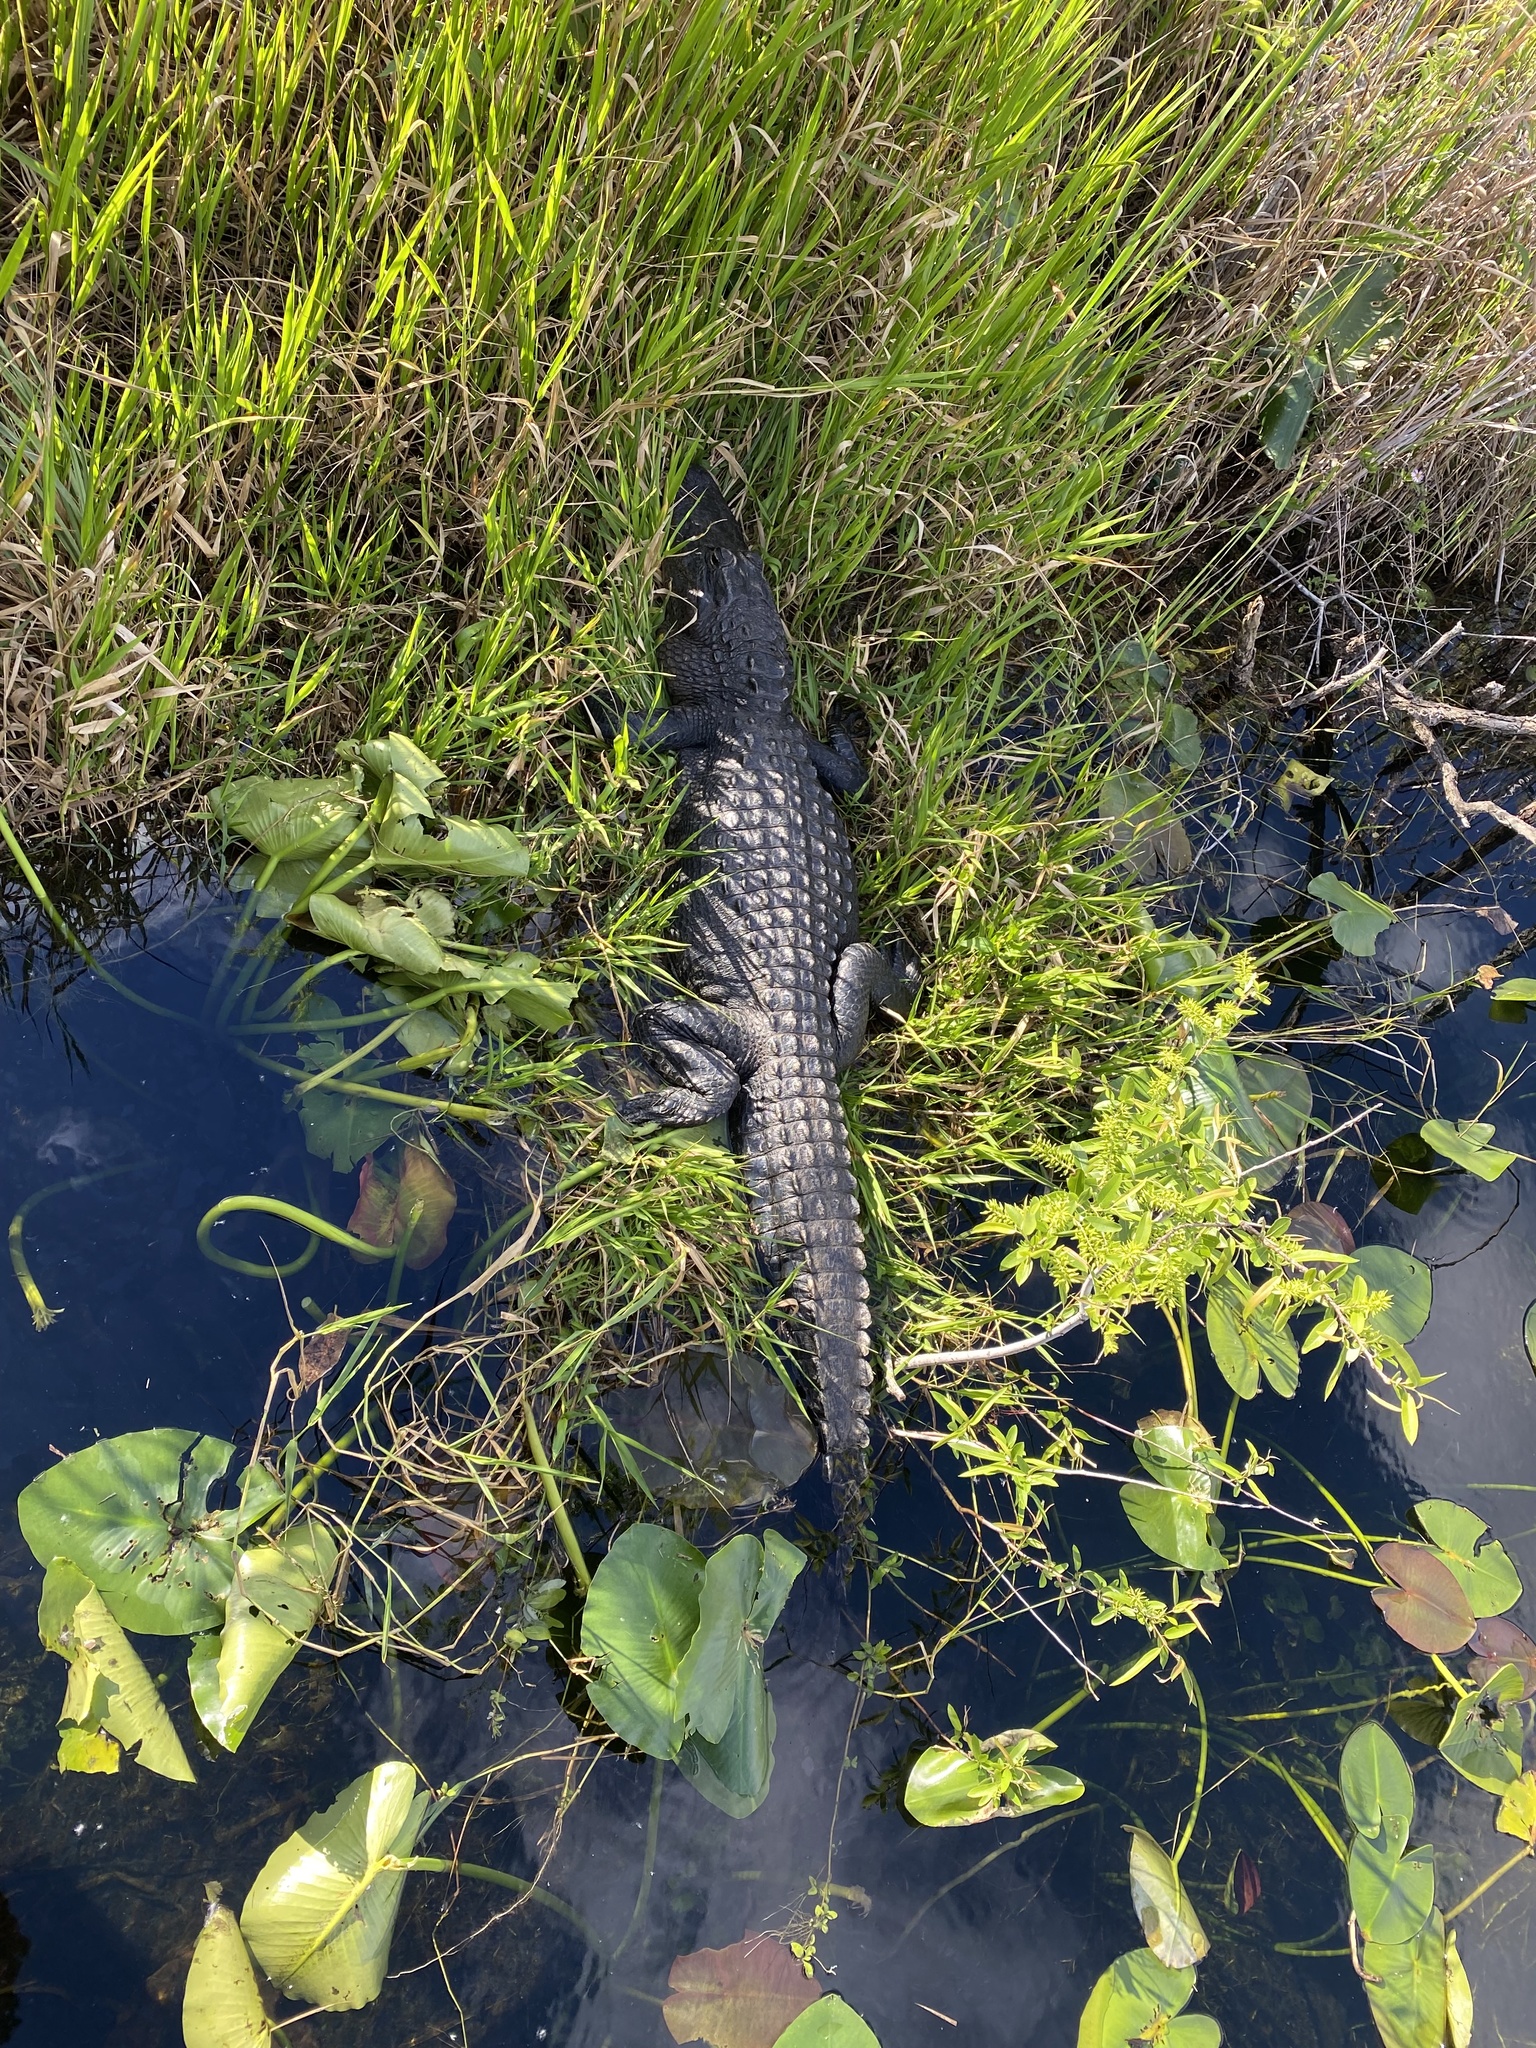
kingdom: Animalia
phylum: Chordata
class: Crocodylia
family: Alligatoridae
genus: Alligator
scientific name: Alligator mississippiensis
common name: American alligator
